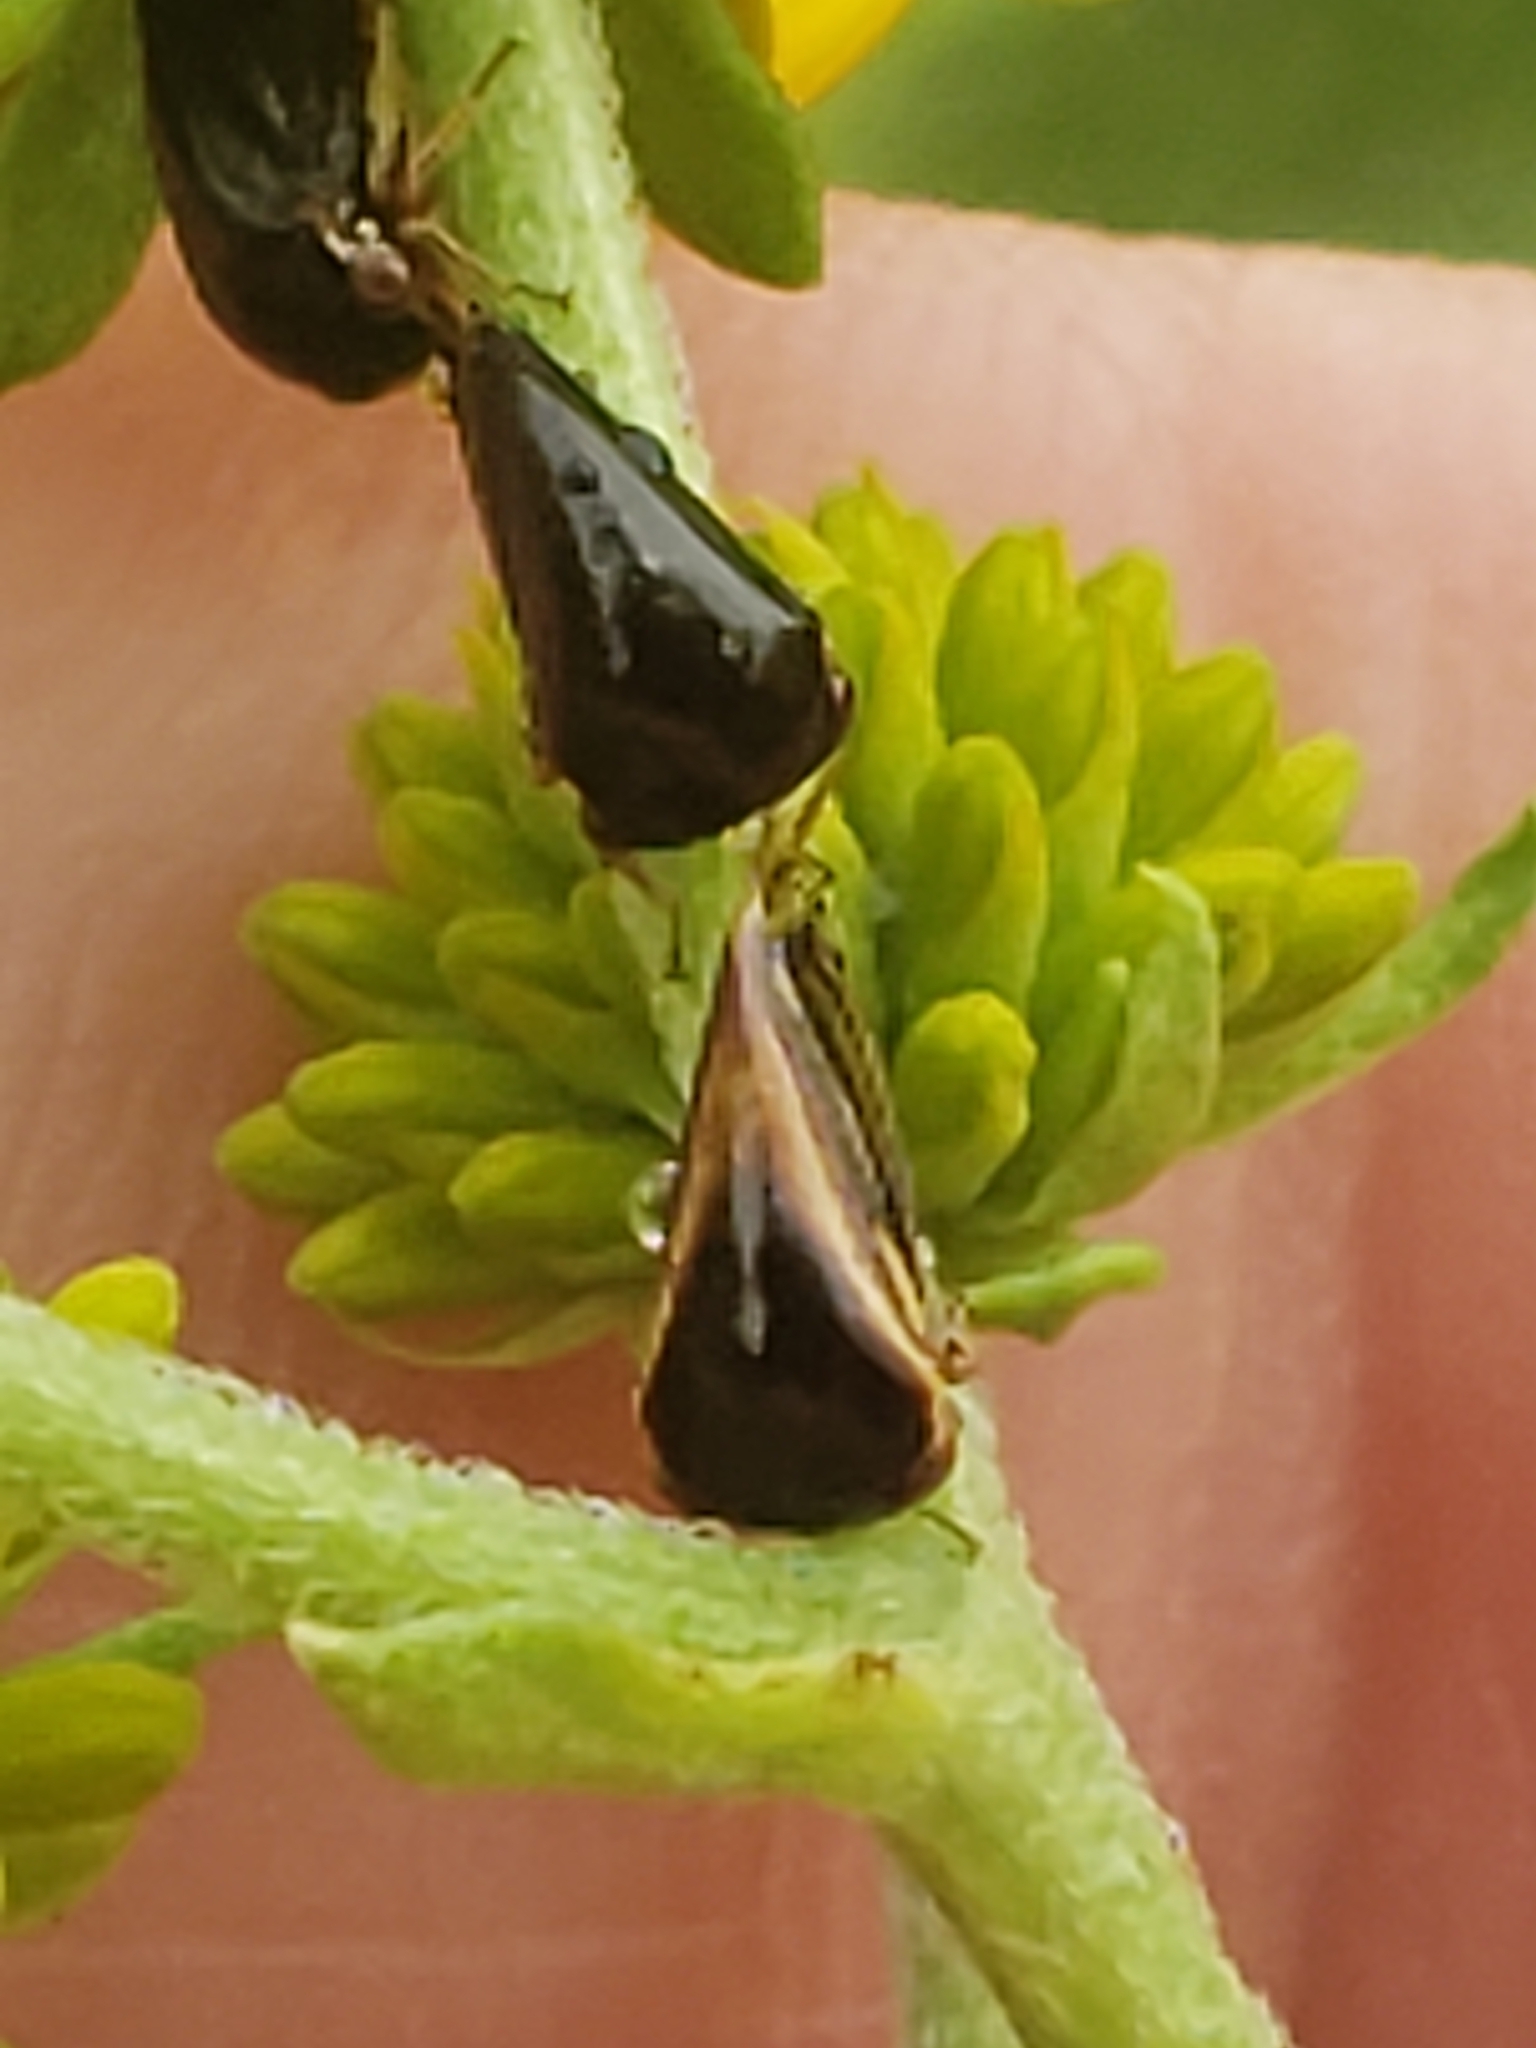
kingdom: Animalia
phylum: Arthropoda
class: Insecta
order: Hemiptera
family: Membracidae
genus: Acutalis
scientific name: Acutalis tartarea
